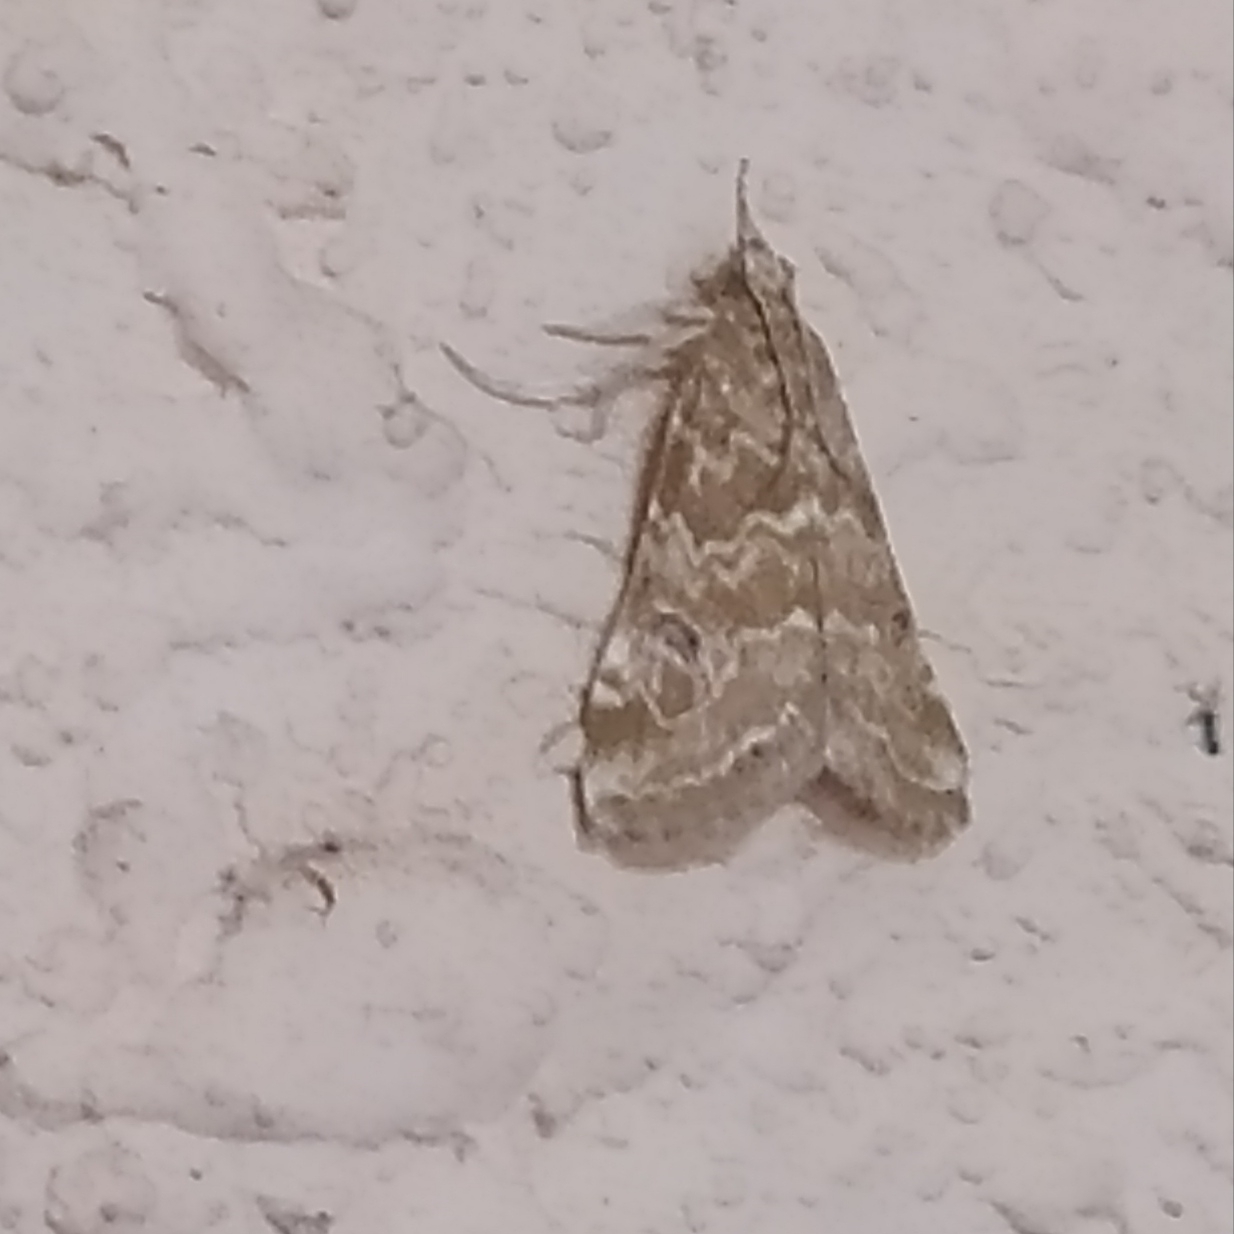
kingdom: Animalia
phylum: Arthropoda
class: Insecta
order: Lepidoptera
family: Crambidae
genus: Hellula
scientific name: Hellula undalis
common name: Cabbage webworm
